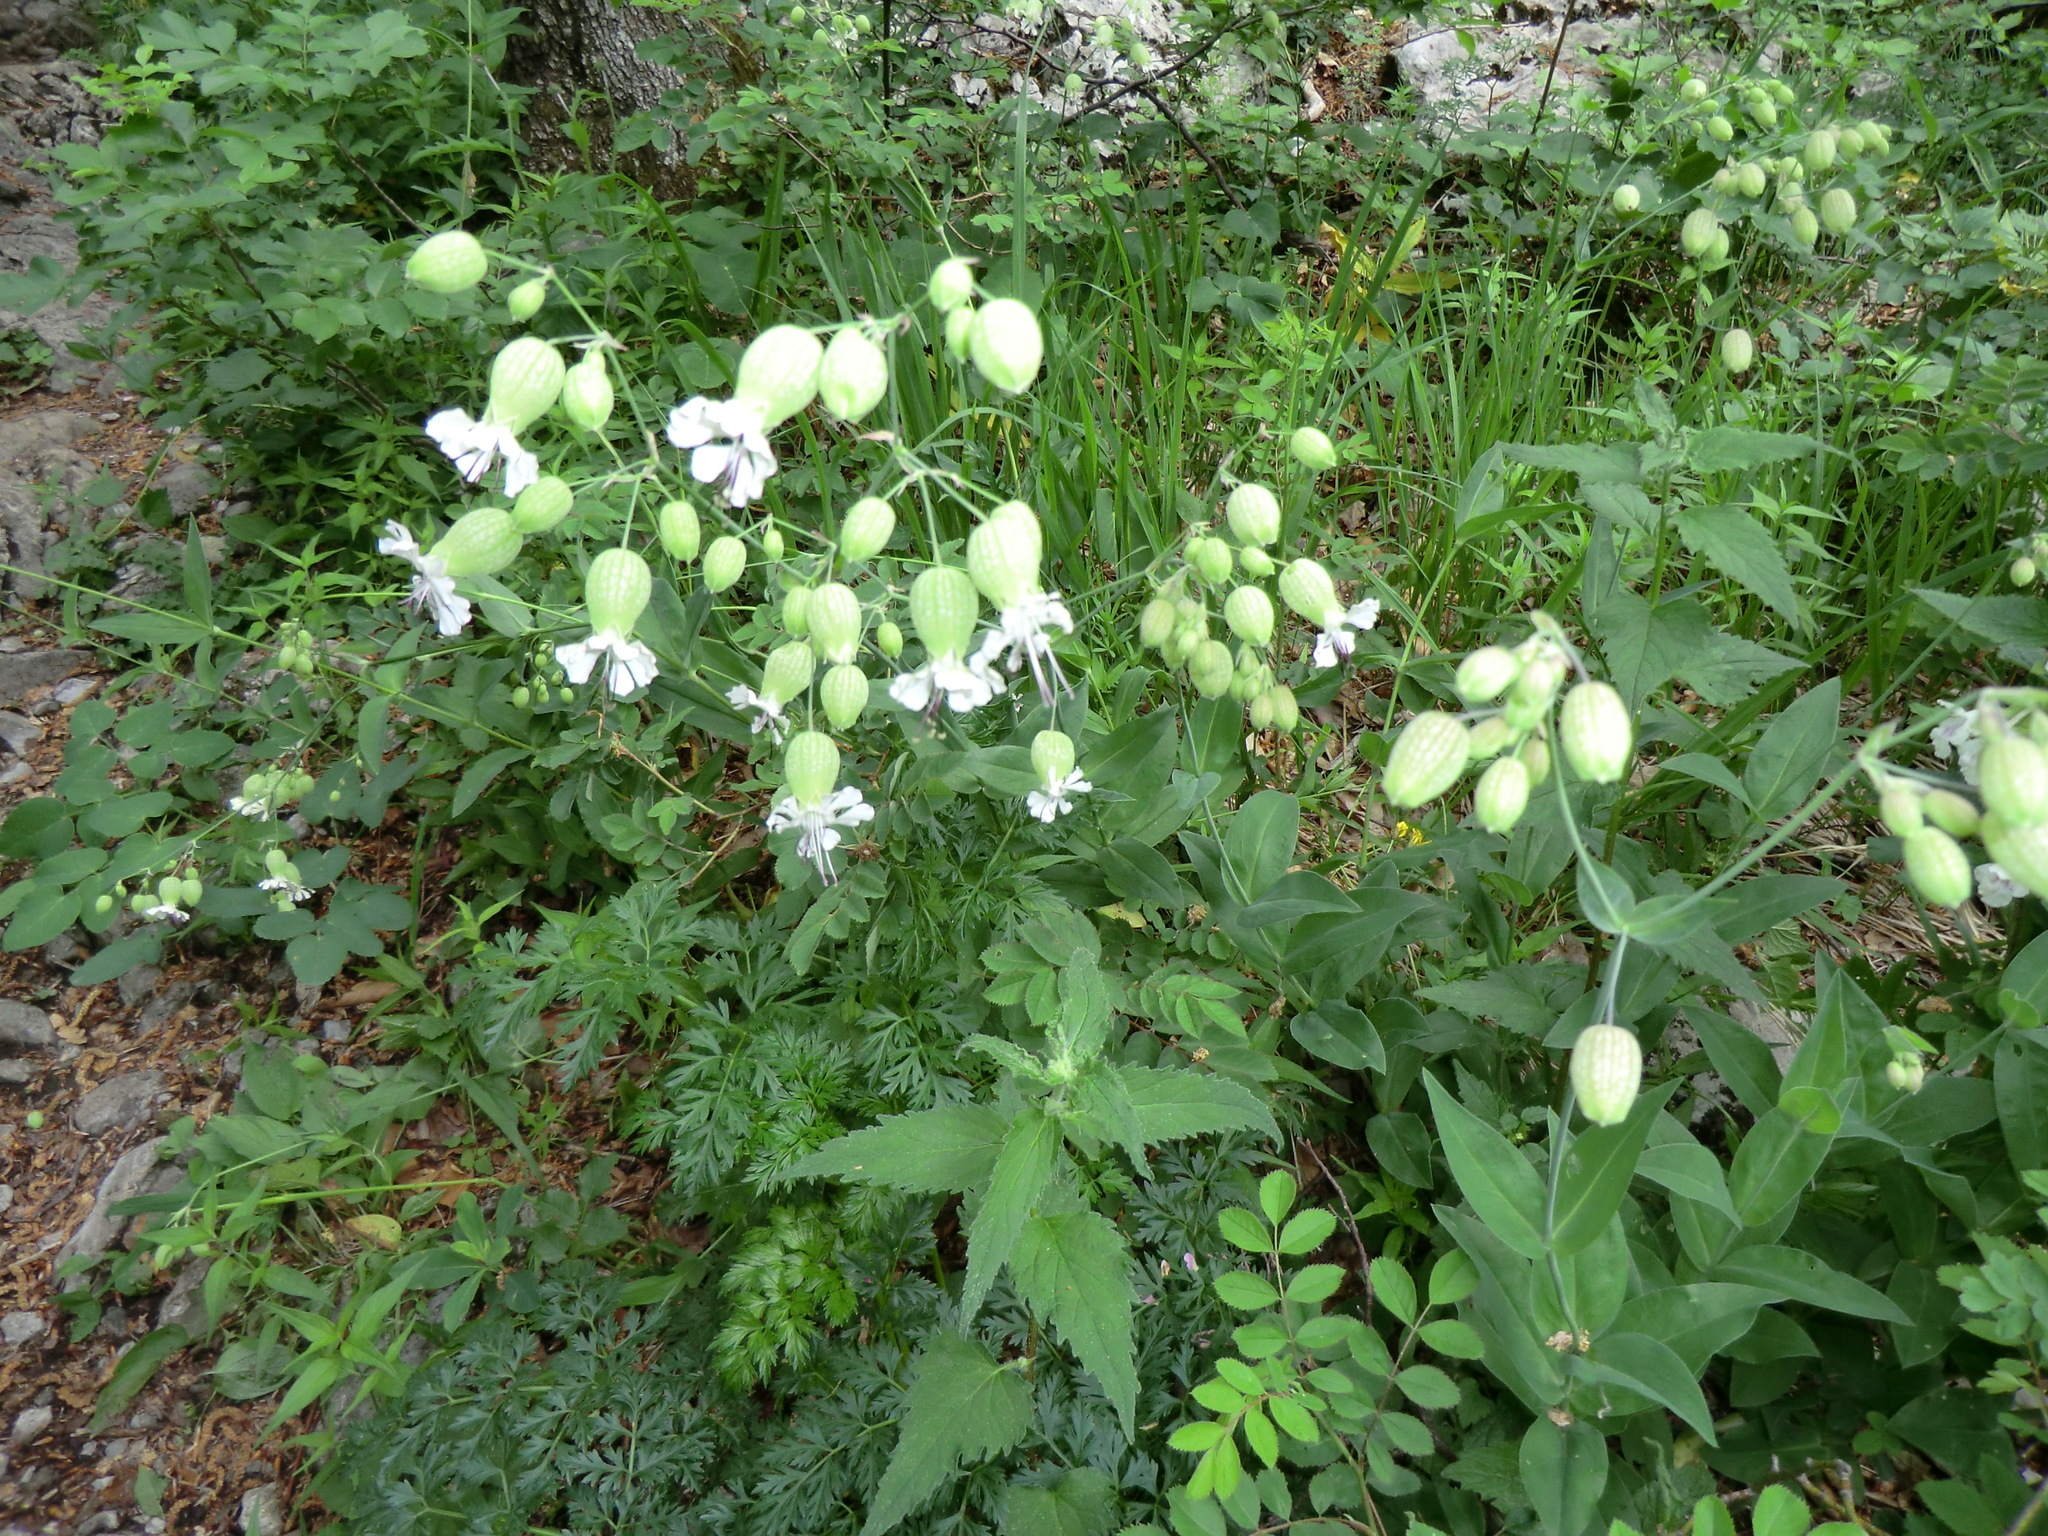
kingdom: Plantae
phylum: Tracheophyta
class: Magnoliopsida
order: Caryophyllales
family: Caryophyllaceae
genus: Silene
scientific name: Silene vulgaris
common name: Bladder campion
